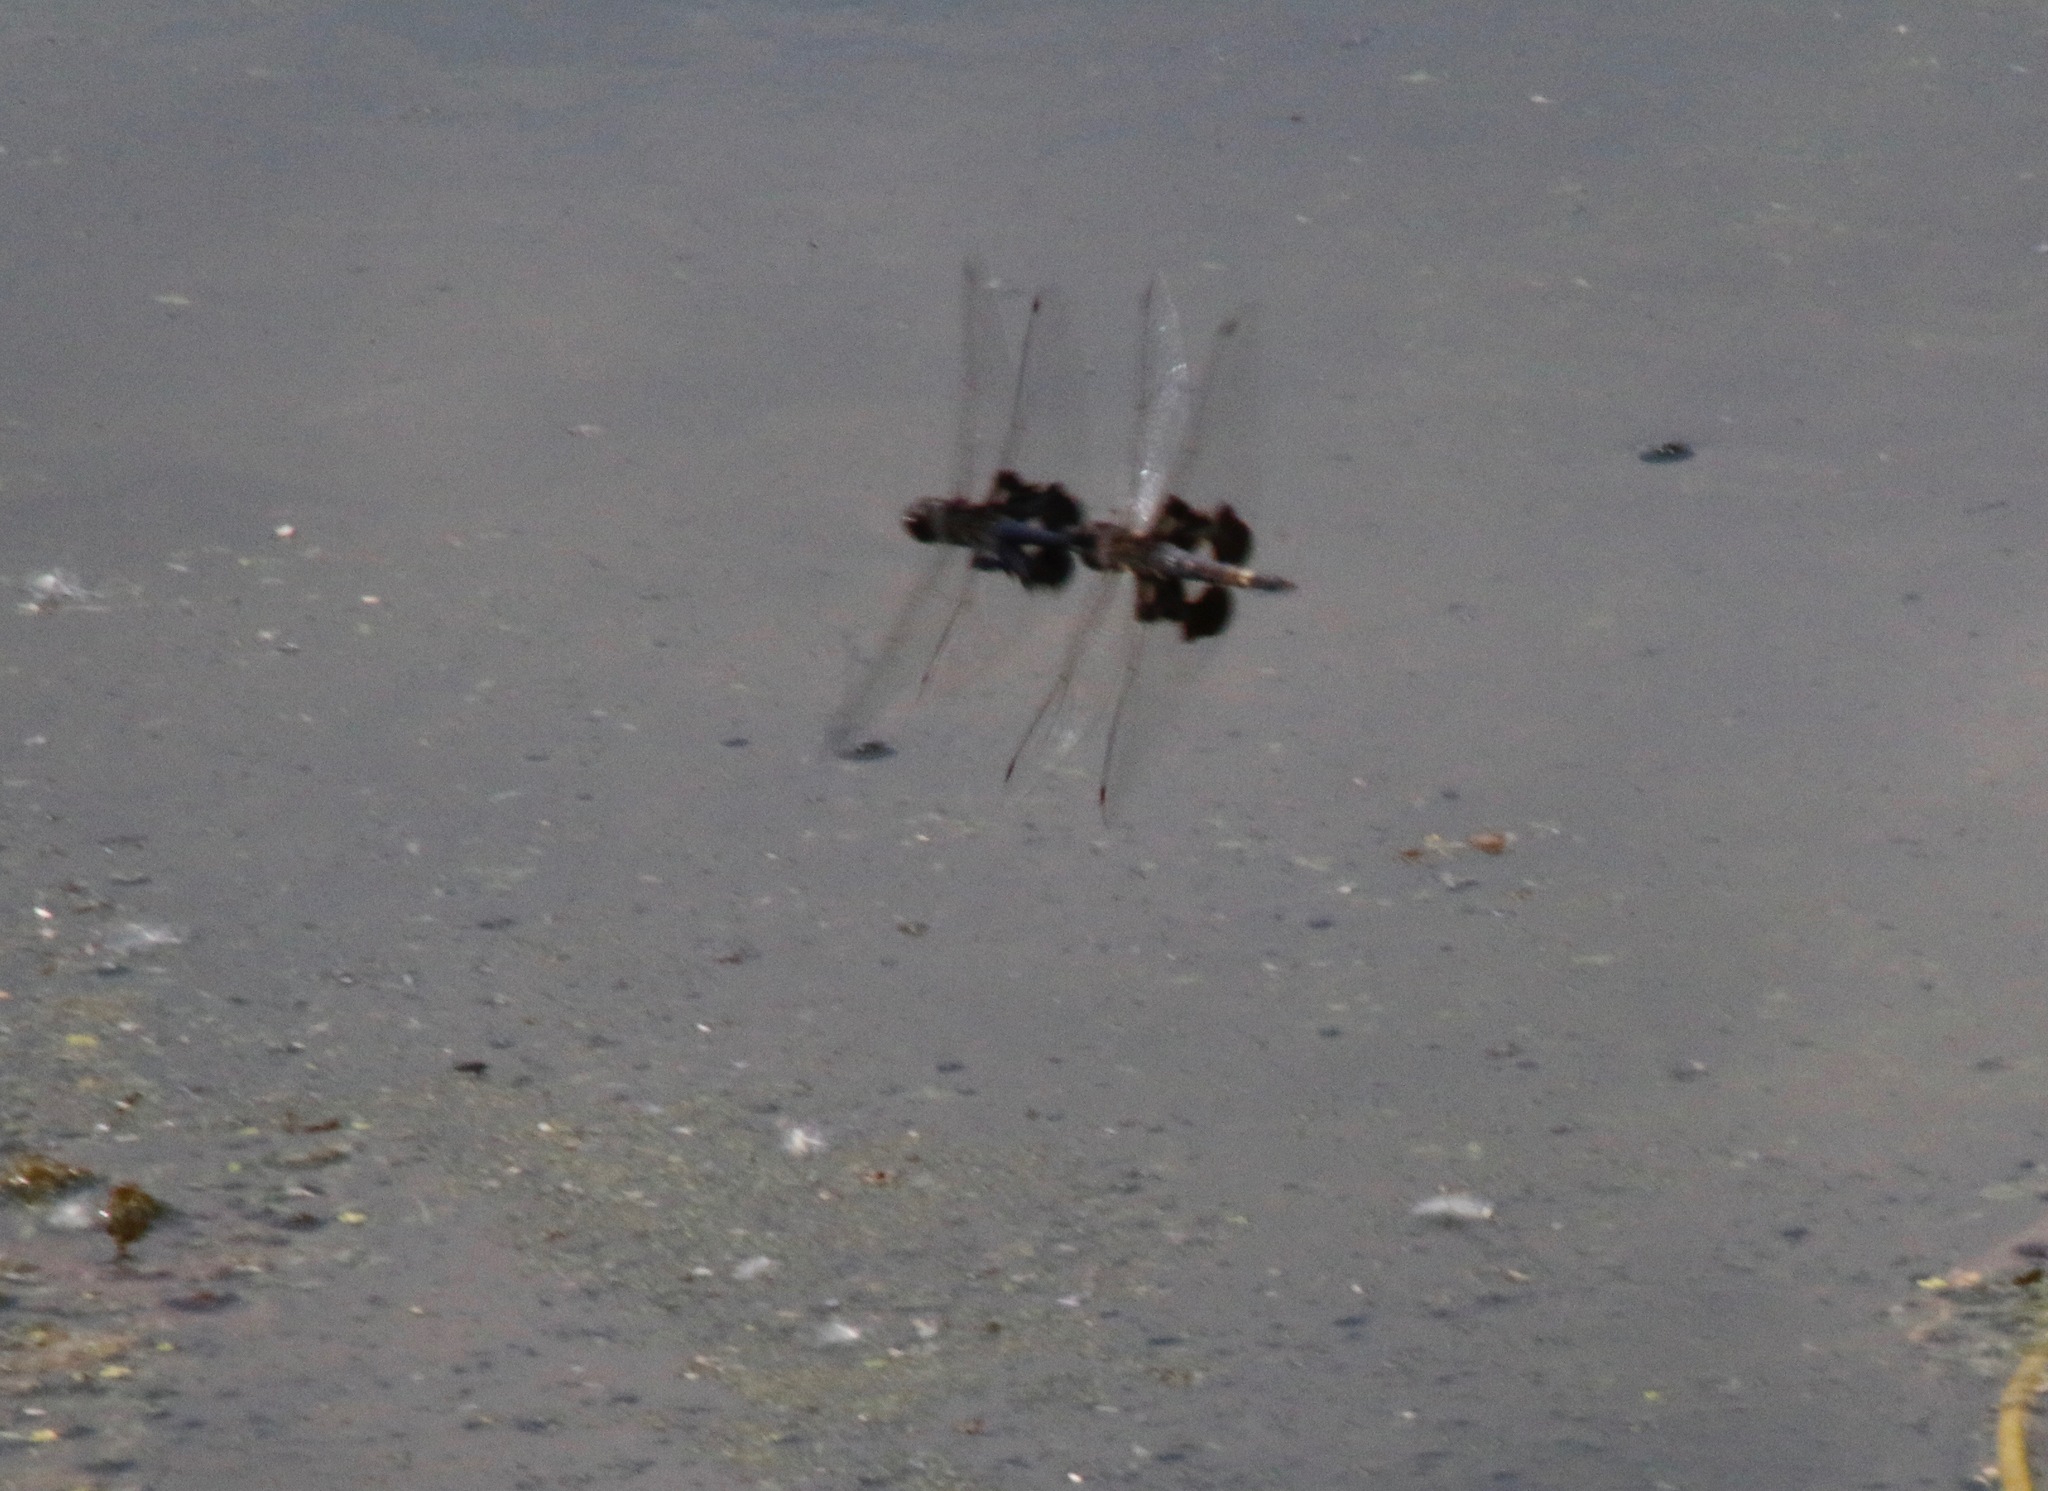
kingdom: Animalia
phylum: Arthropoda
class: Insecta
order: Odonata
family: Libellulidae
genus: Tramea
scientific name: Tramea lacerata
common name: Black saddlebags
